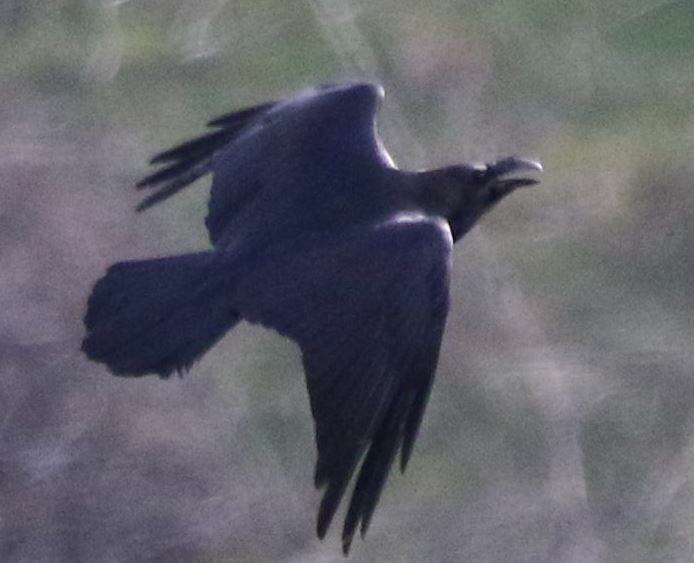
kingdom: Animalia
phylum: Chordata
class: Aves
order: Passeriformes
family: Corvidae
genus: Corvus
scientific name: Corvus corax
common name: Common raven
